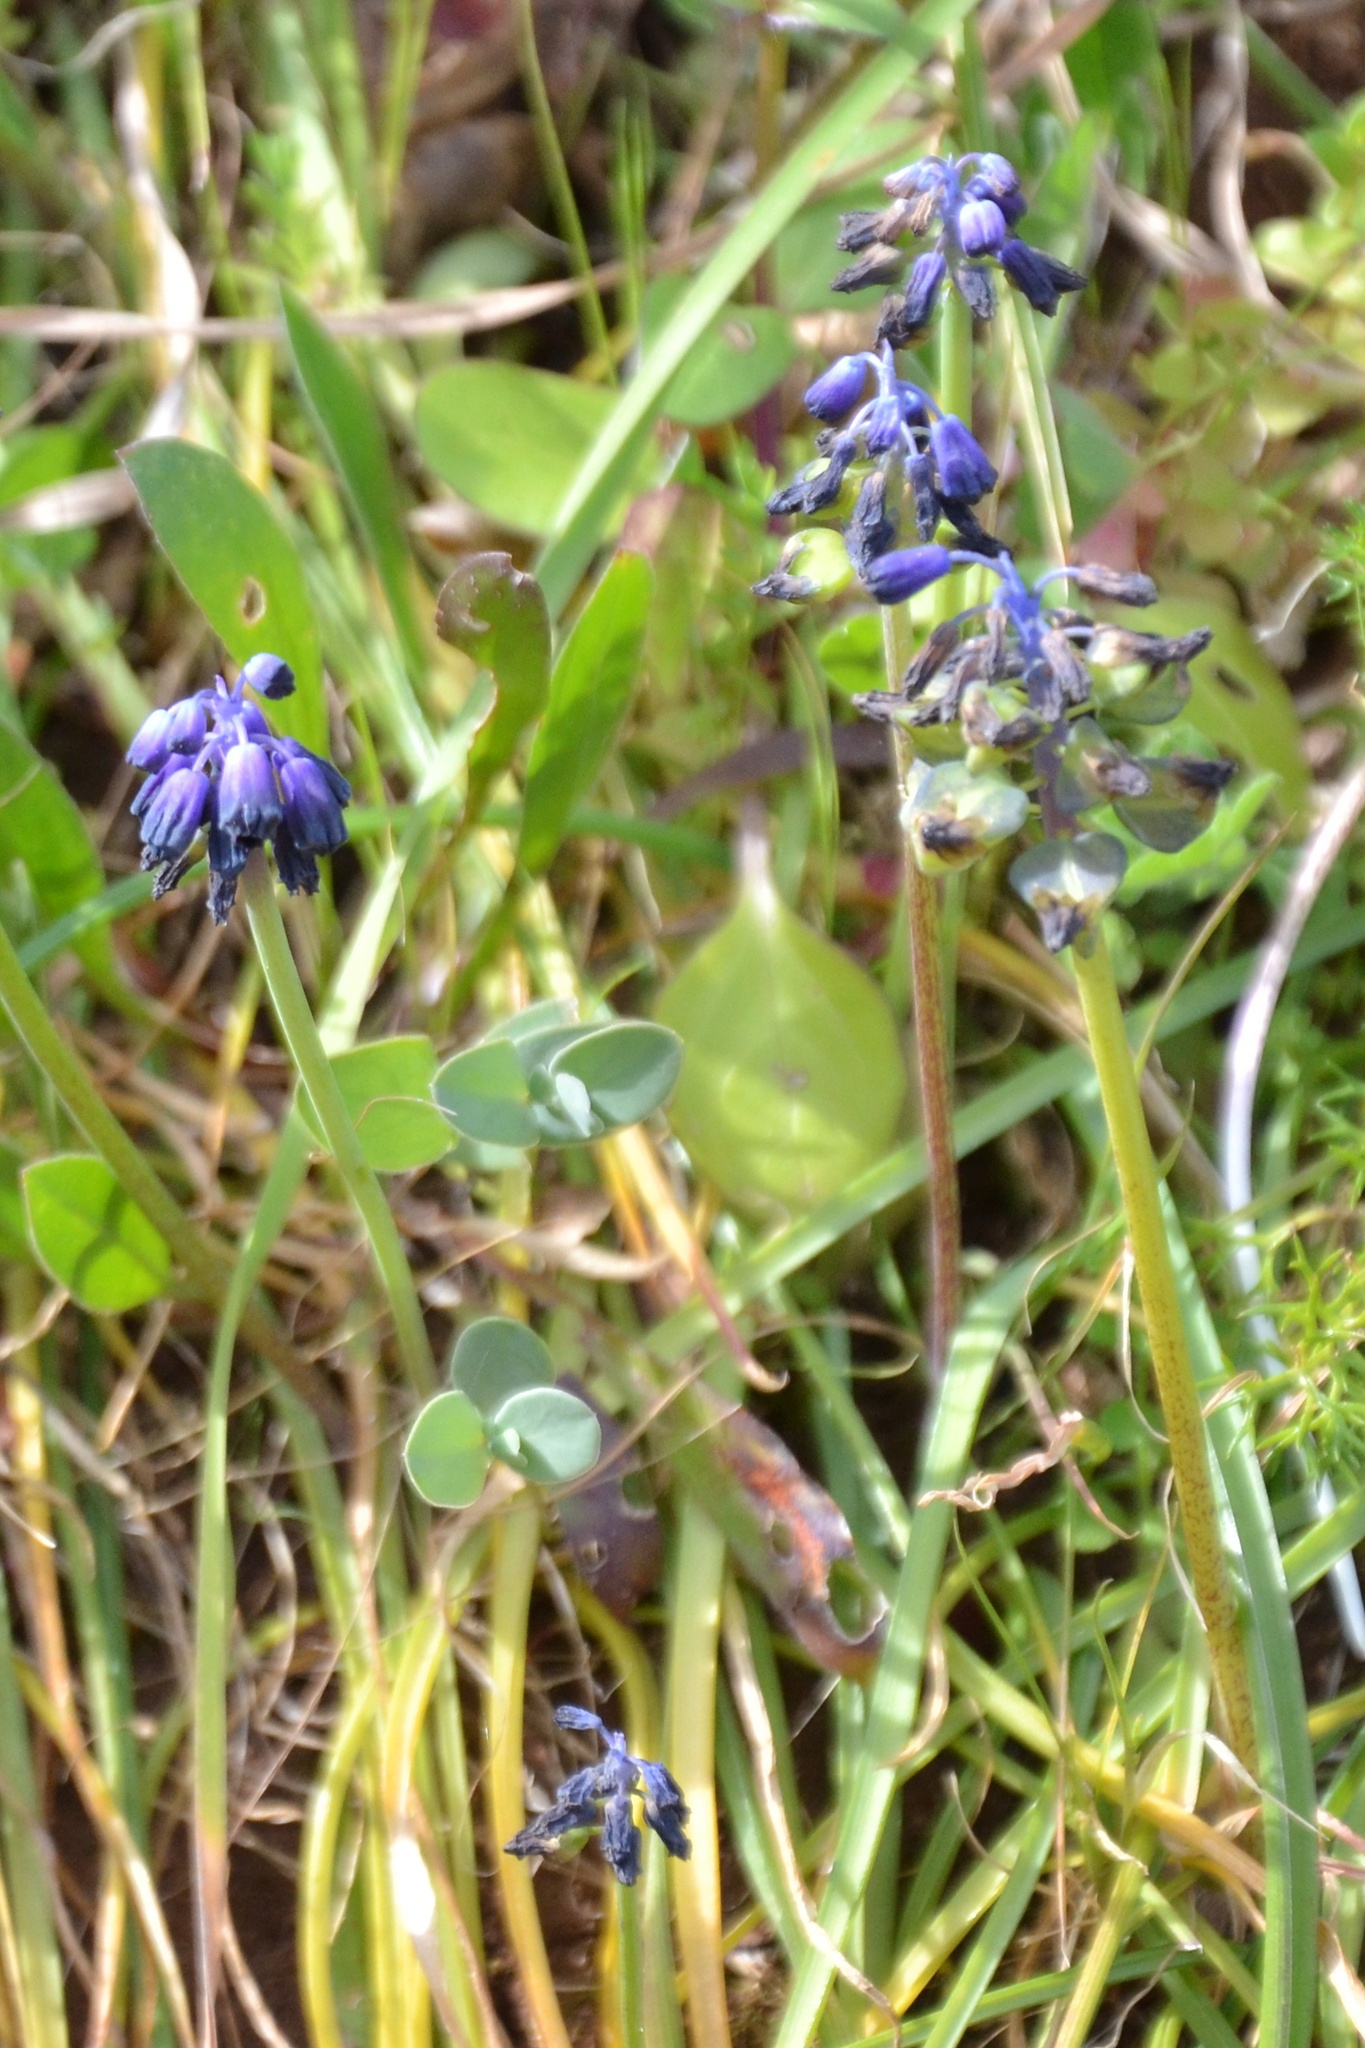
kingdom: Plantae
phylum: Tracheophyta
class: Liliopsida
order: Asparagales
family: Asparagaceae
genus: Muscari
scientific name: Muscari commutatum
